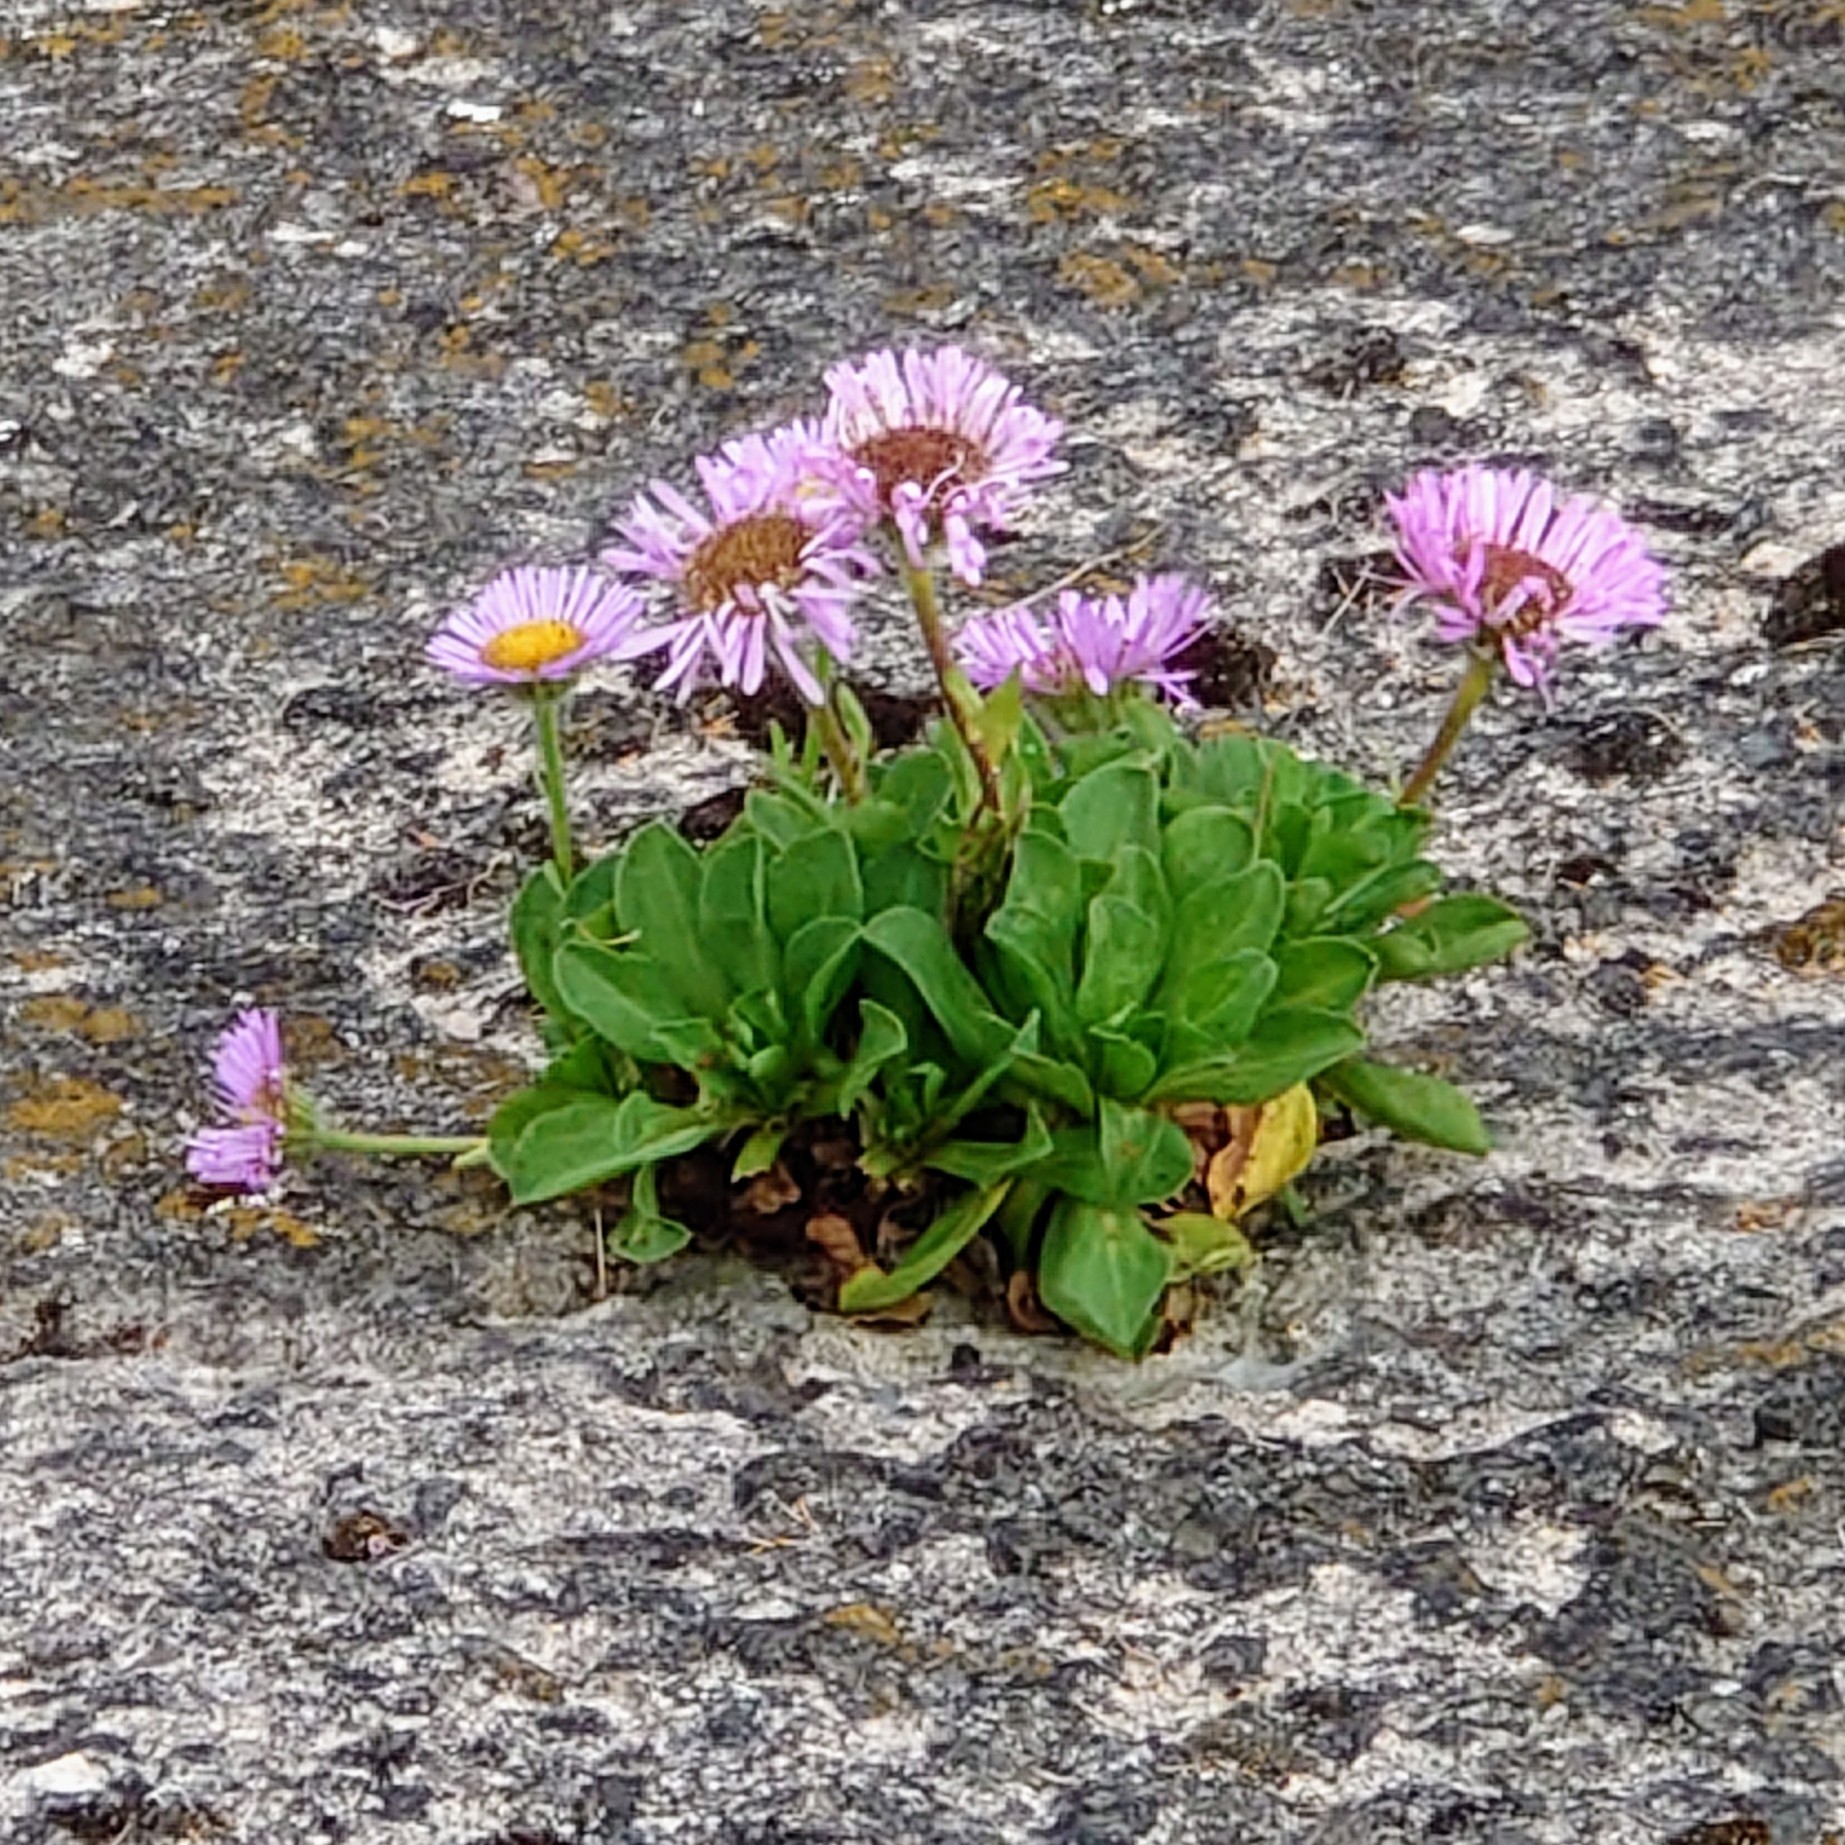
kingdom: Plantae
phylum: Tracheophyta
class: Magnoliopsida
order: Asterales
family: Asteraceae
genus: Erigeron
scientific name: Erigeron glaucus
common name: Seaside daisy
